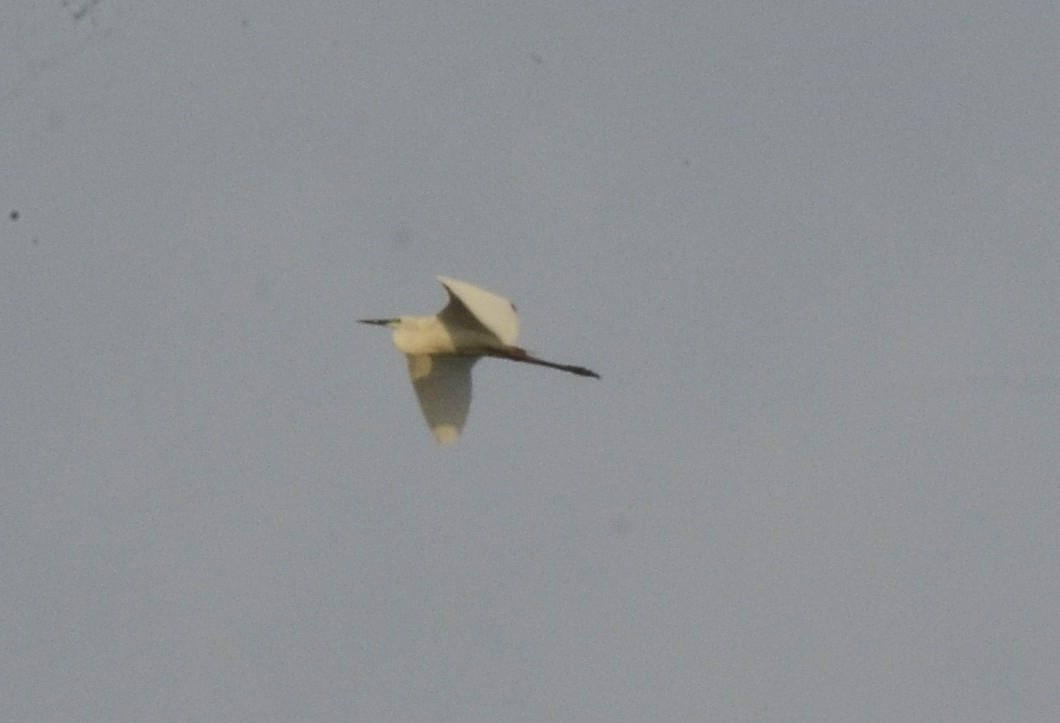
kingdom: Animalia
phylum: Chordata
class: Aves
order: Pelecaniformes
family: Ardeidae
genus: Egretta
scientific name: Egretta garzetta
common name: Little egret
